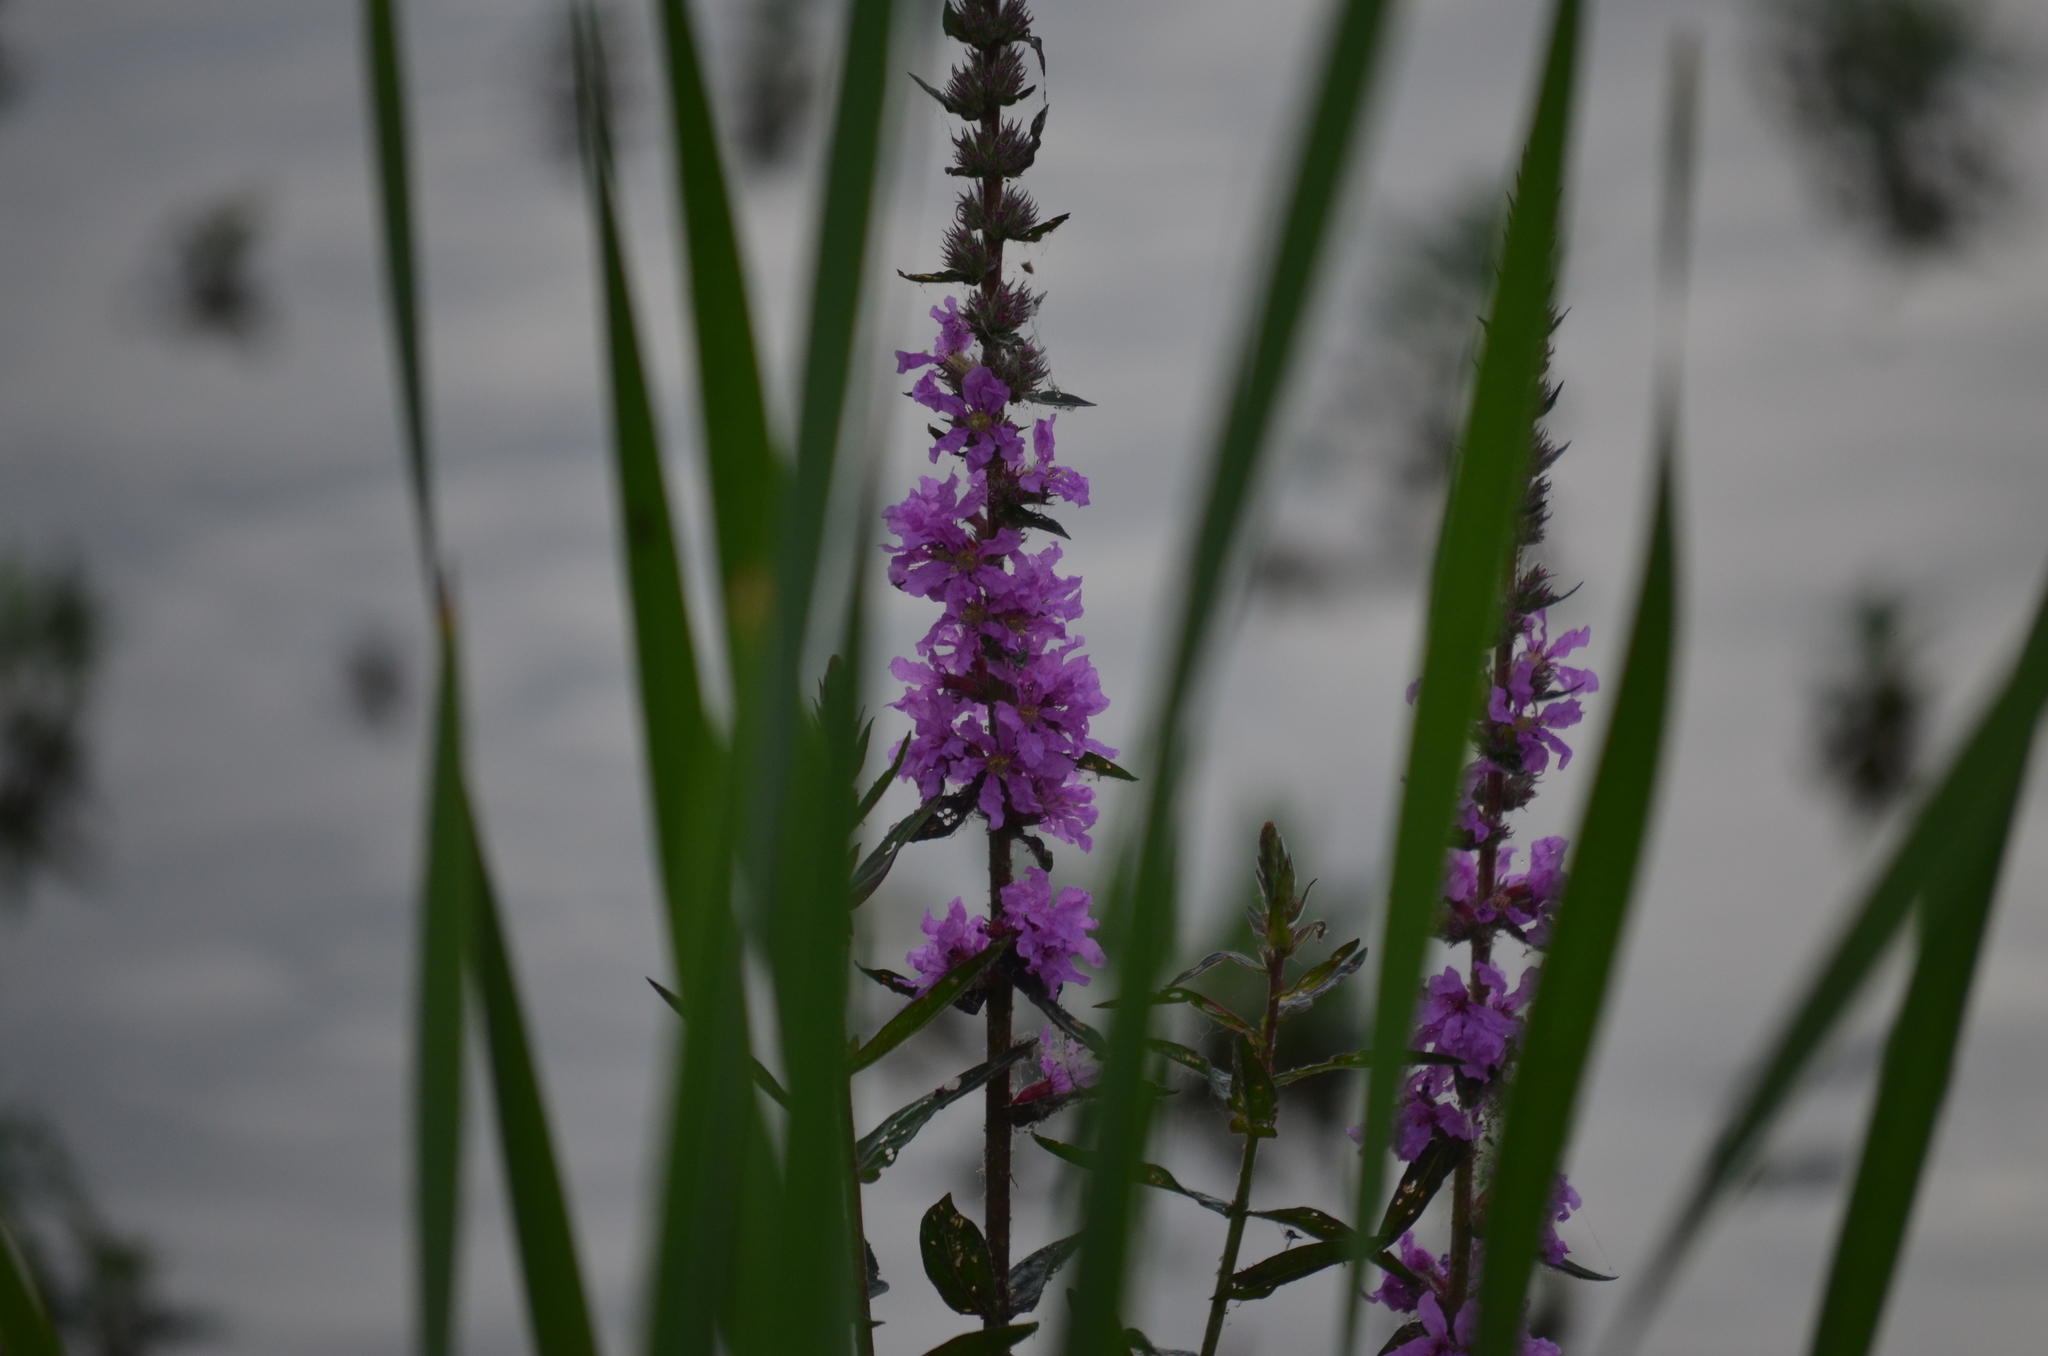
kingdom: Plantae
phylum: Tracheophyta
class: Magnoliopsida
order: Myrtales
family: Lythraceae
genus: Lythrum
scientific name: Lythrum salicaria
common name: Purple loosestrife
